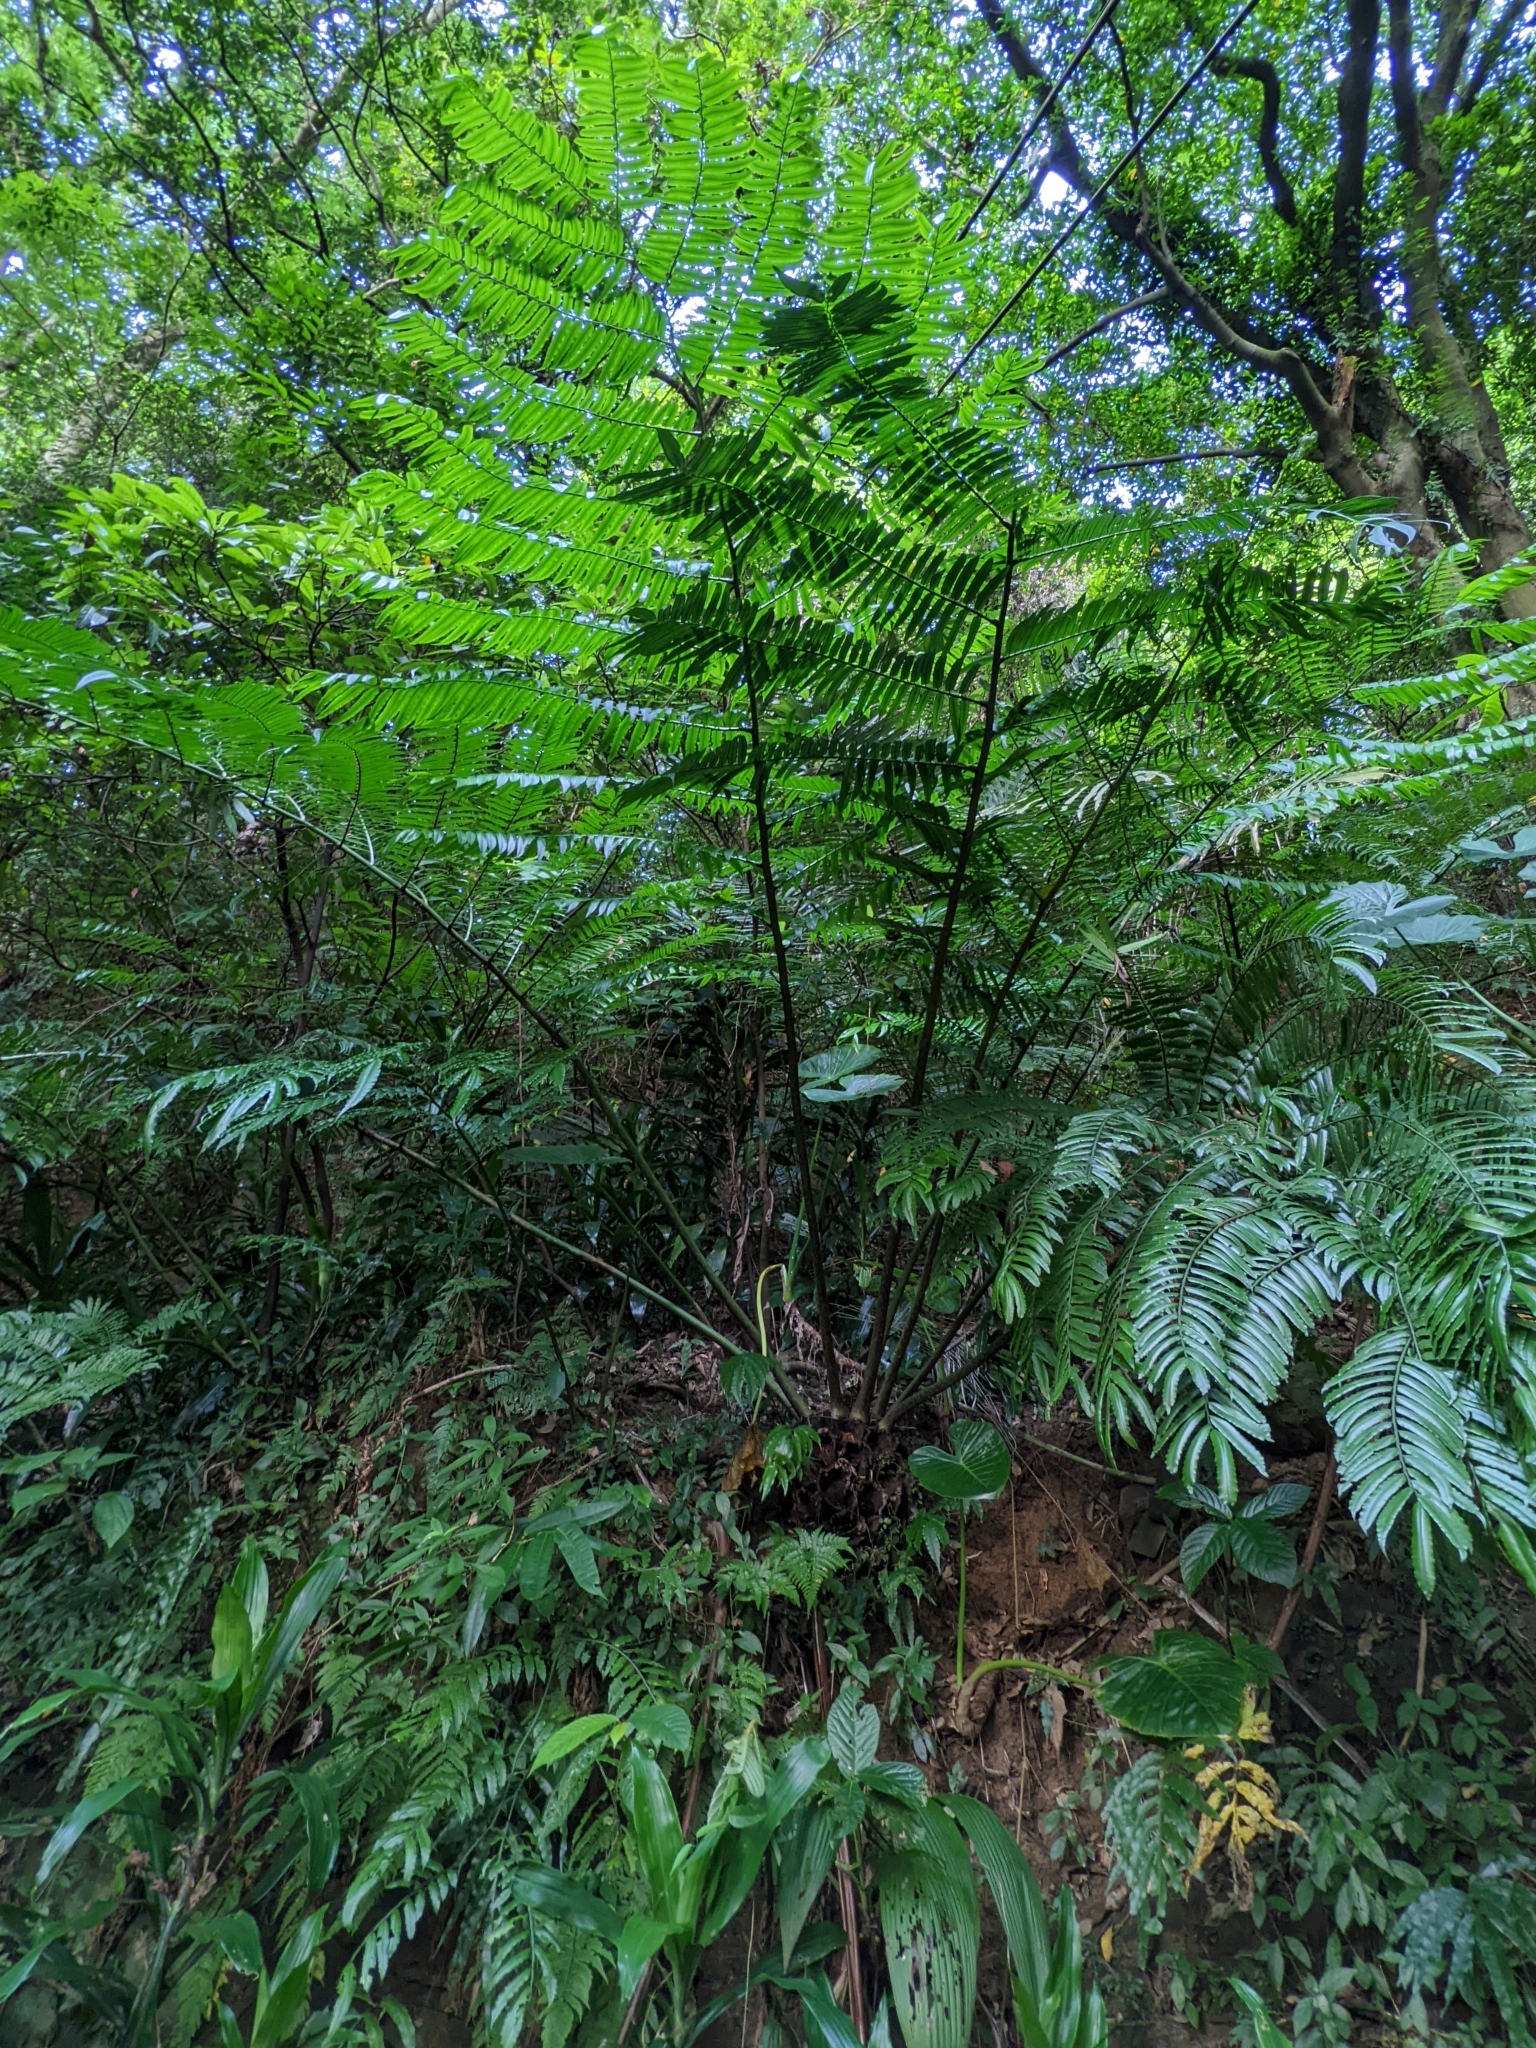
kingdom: Plantae
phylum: Tracheophyta
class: Polypodiopsida
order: Marattiales
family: Marattiaceae
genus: Angiopteris
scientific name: Angiopteris lygodiifolia
